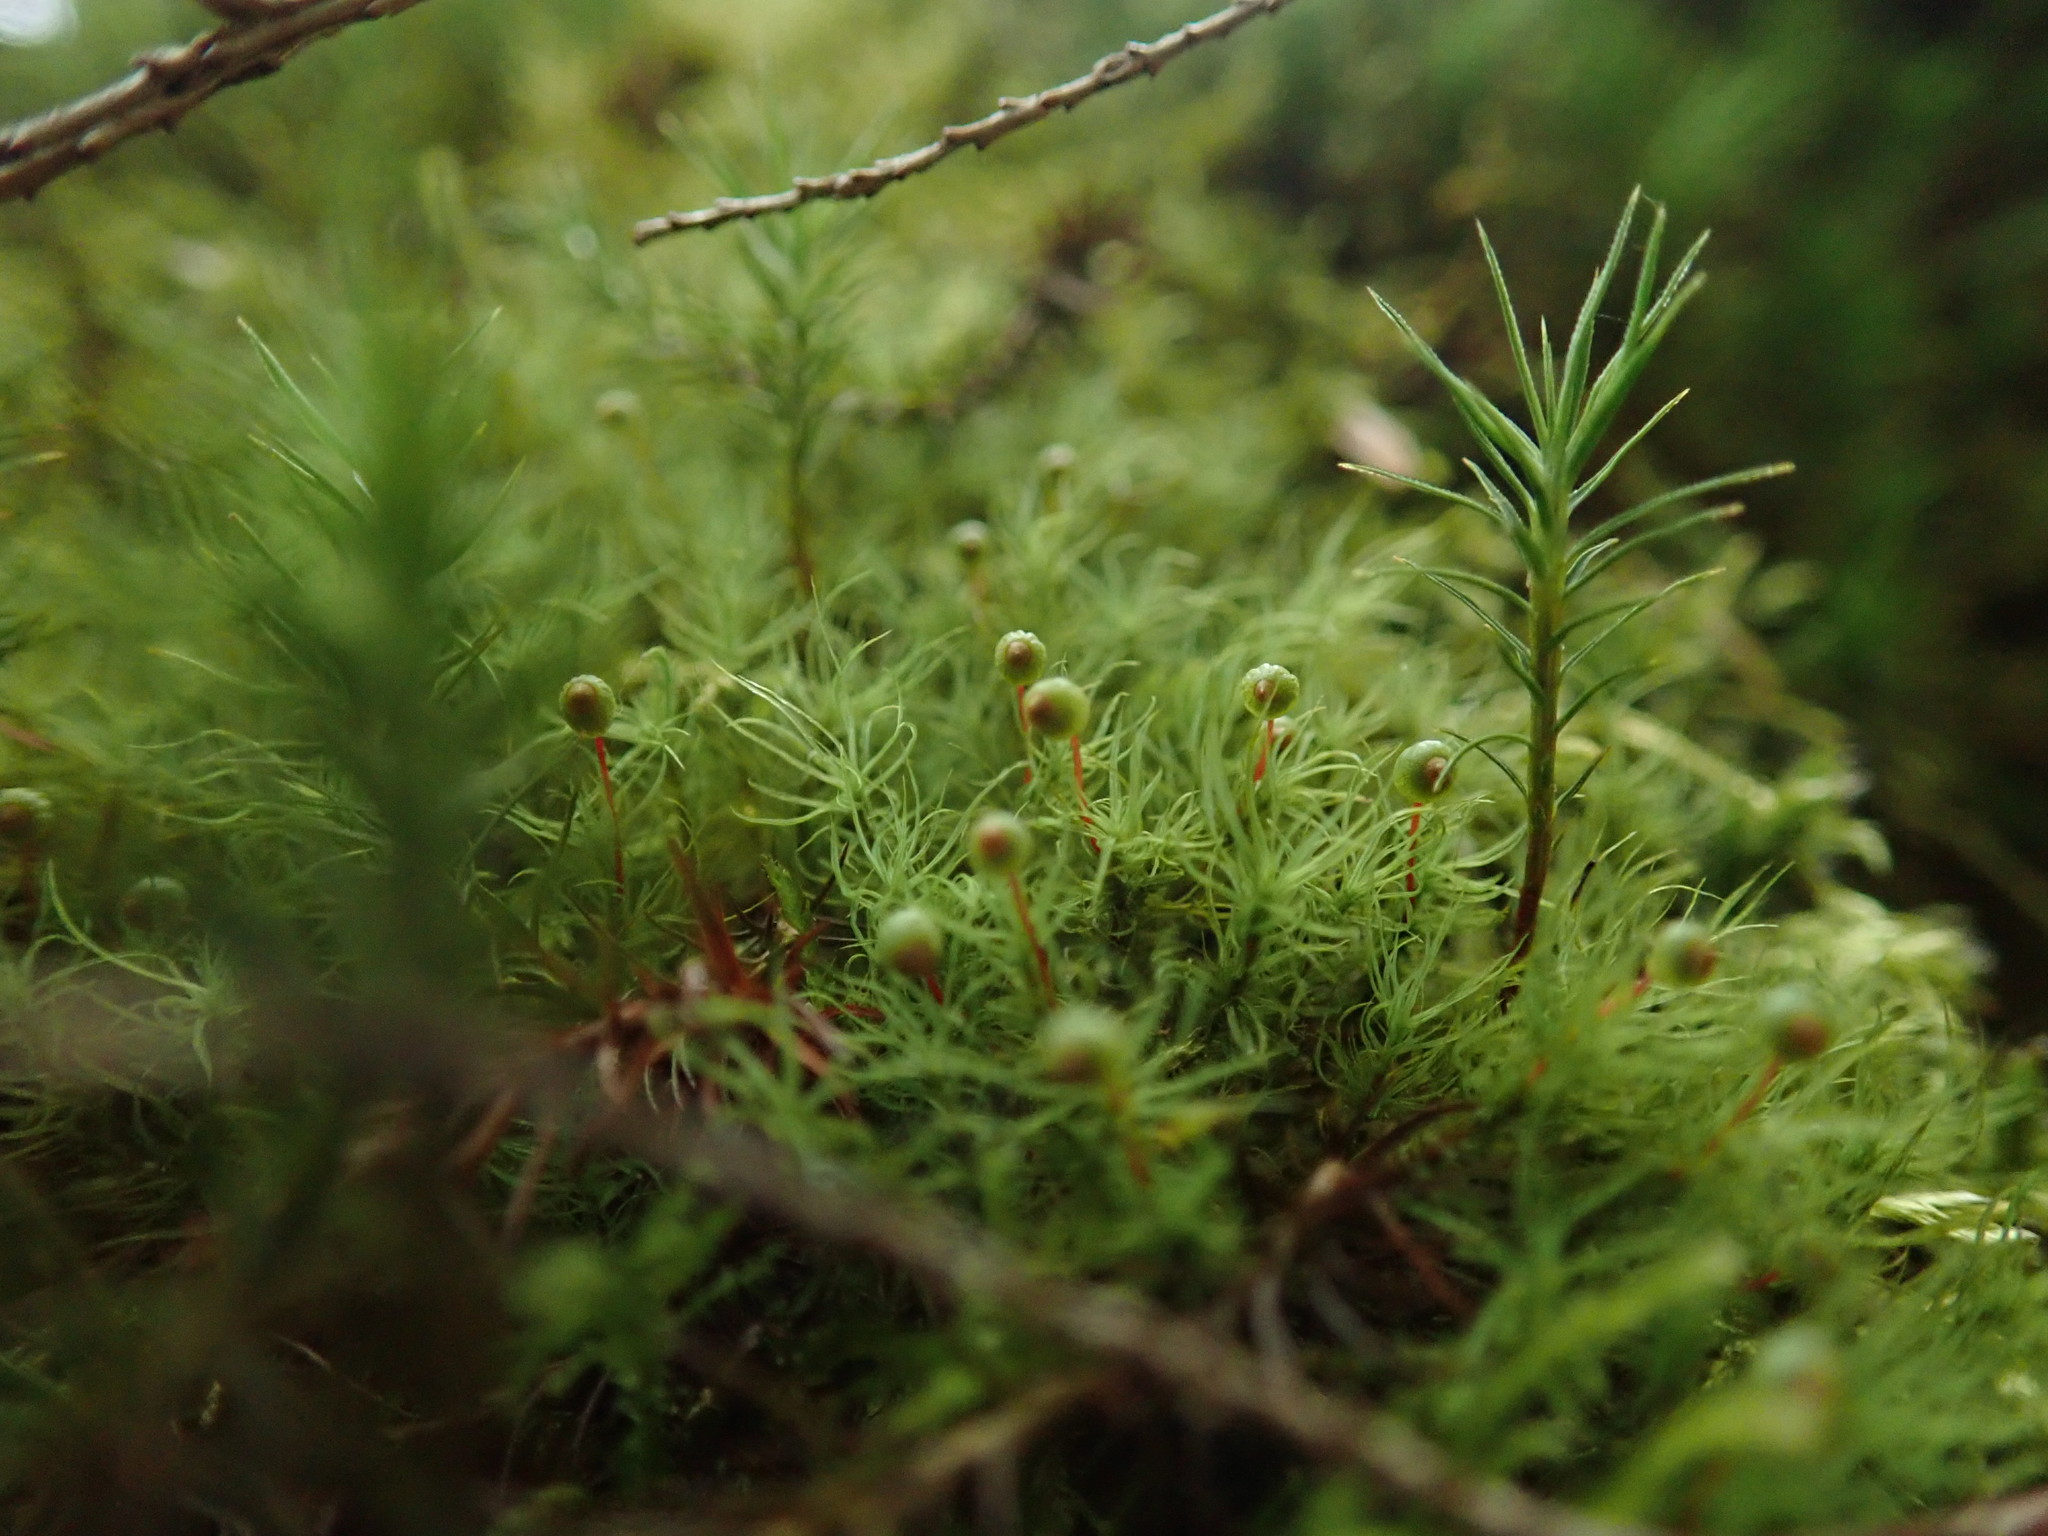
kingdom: Plantae
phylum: Bryophyta
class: Bryopsida
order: Bartramiales
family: Bartramiaceae
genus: Bartramia
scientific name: Bartramia ithyphylla
